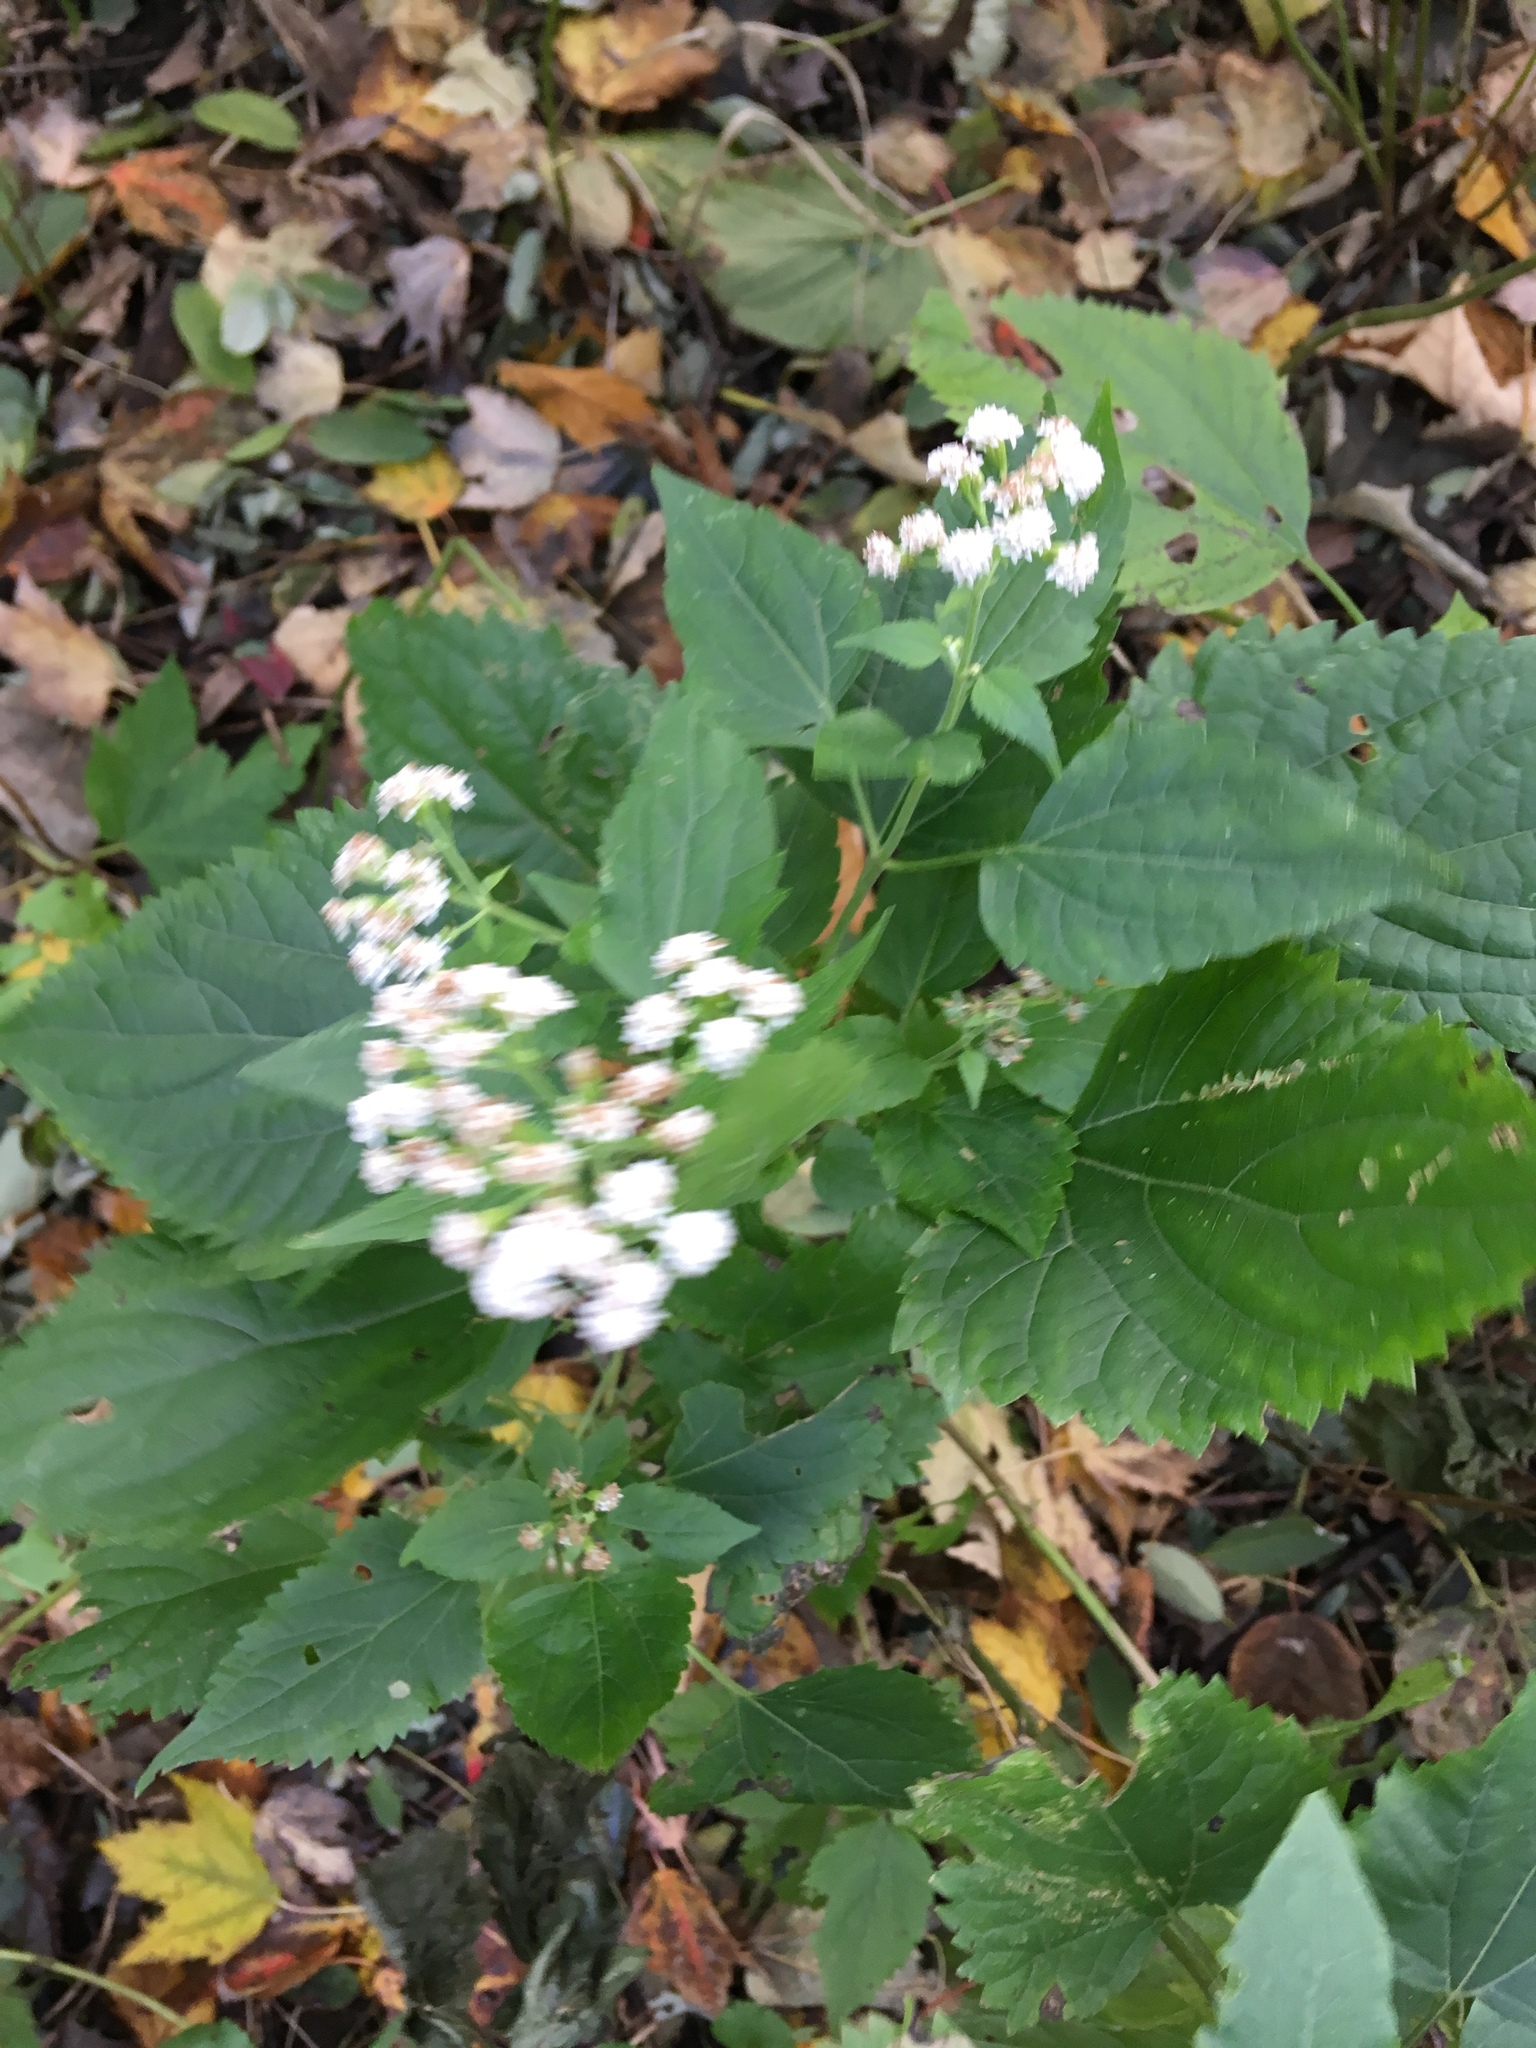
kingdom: Plantae
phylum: Tracheophyta
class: Magnoliopsida
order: Asterales
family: Asteraceae
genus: Ageratina
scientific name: Ageratina altissima
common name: White snakeroot
